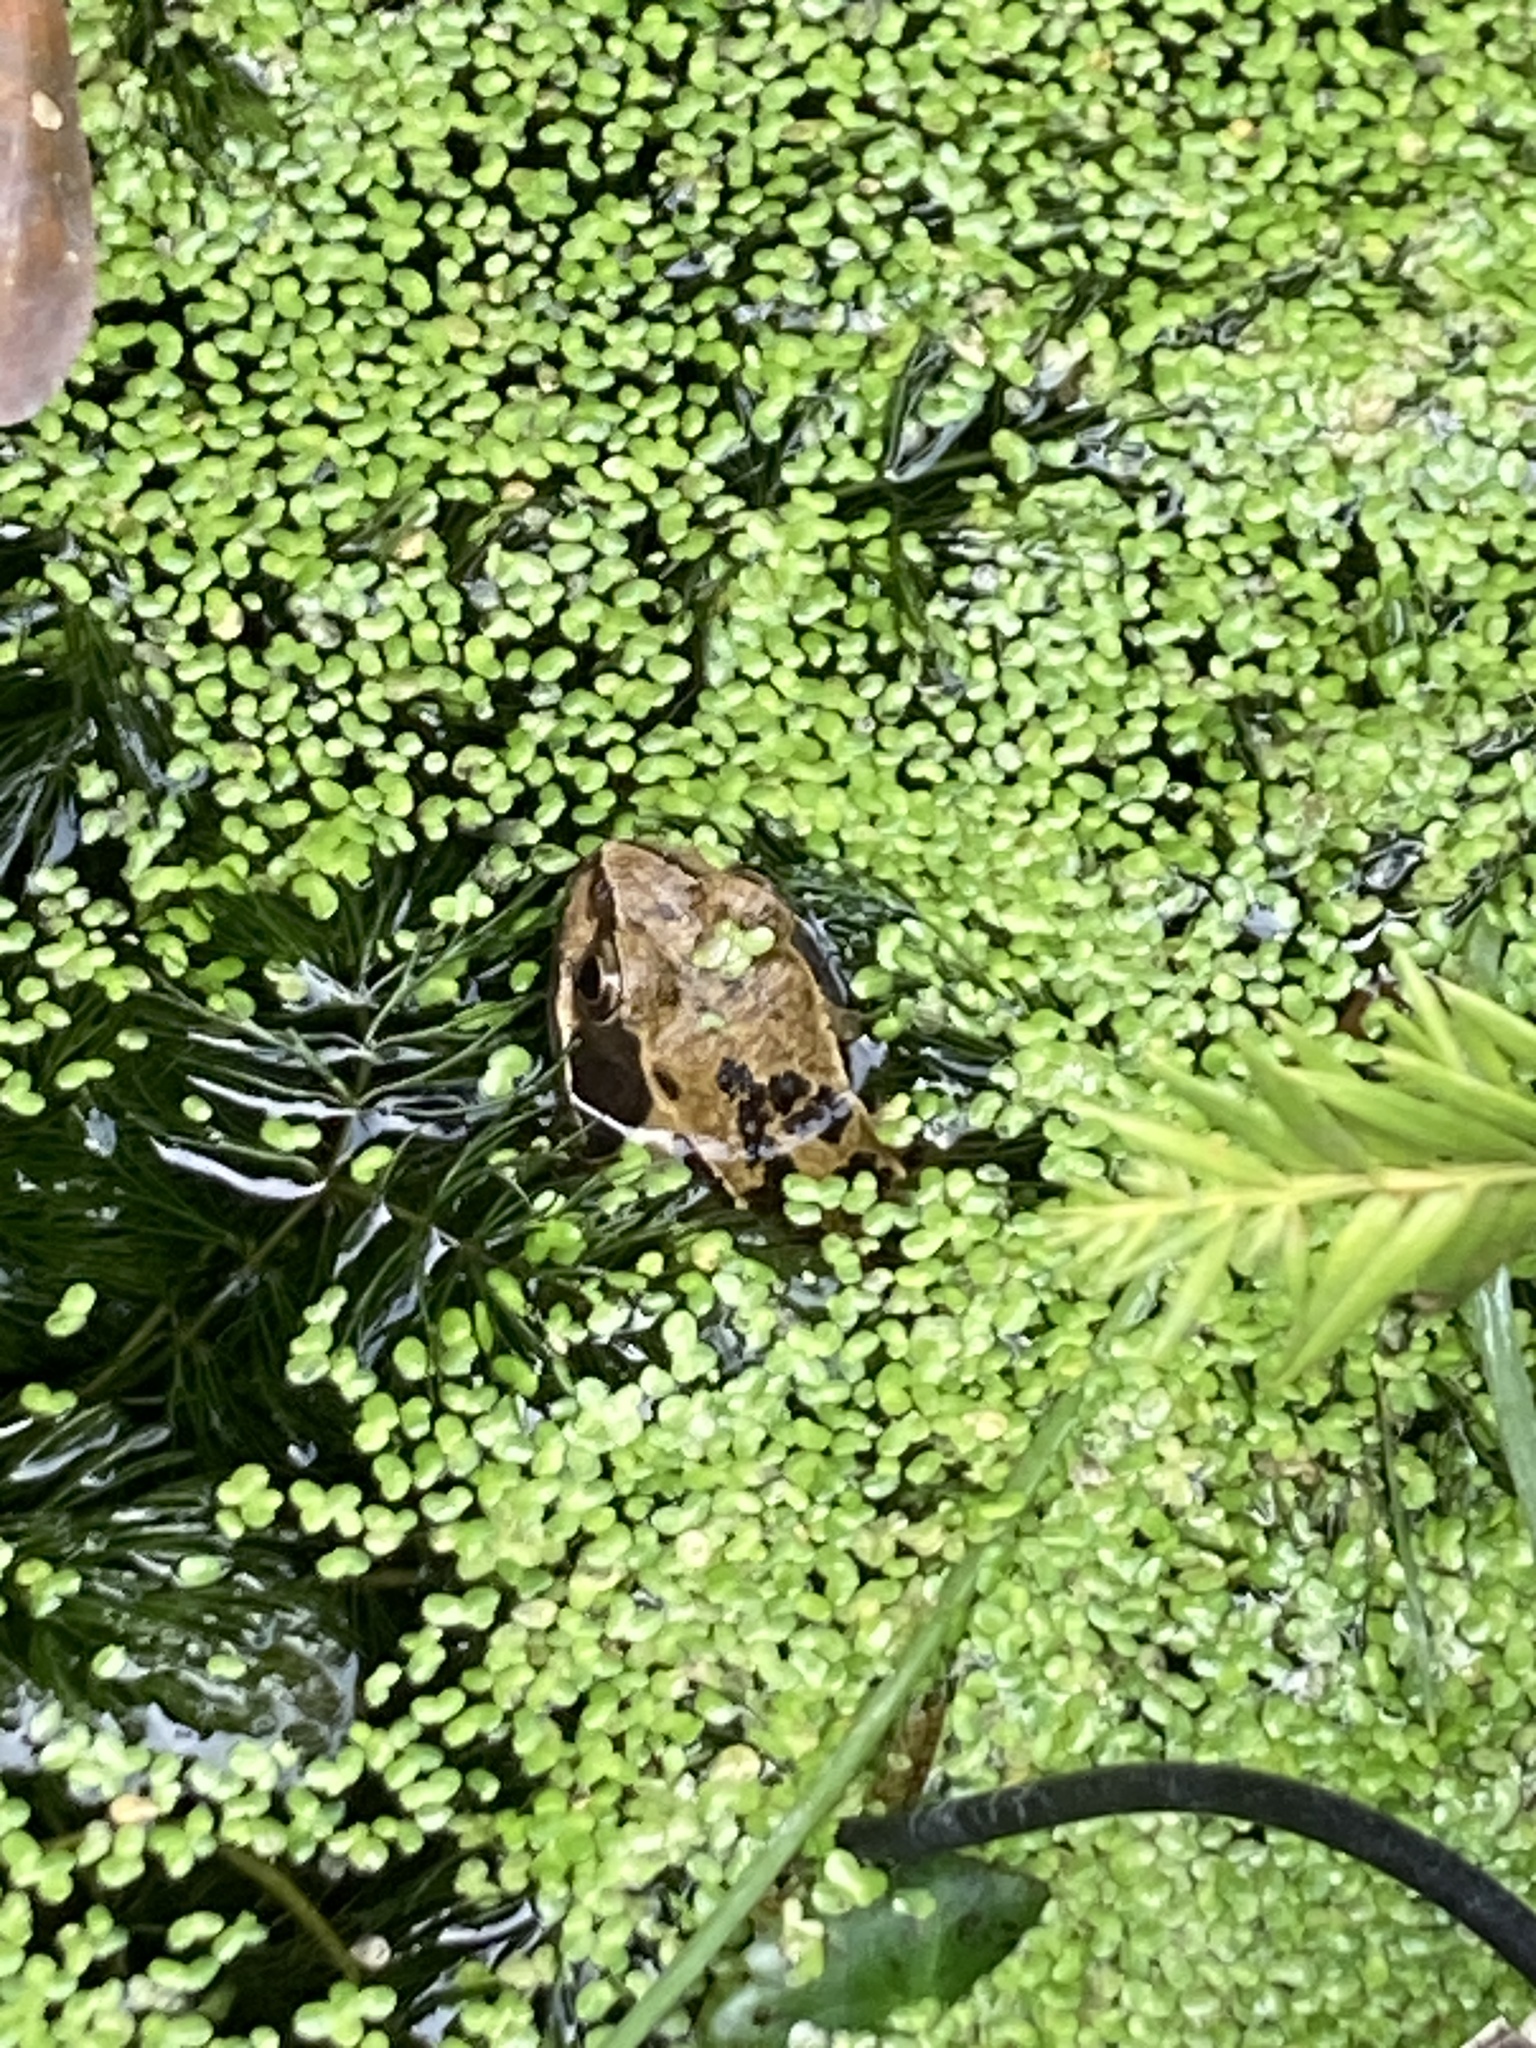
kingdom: Animalia
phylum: Chordata
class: Amphibia
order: Anura
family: Ranidae
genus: Rana
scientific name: Rana temporaria
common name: Common frog
